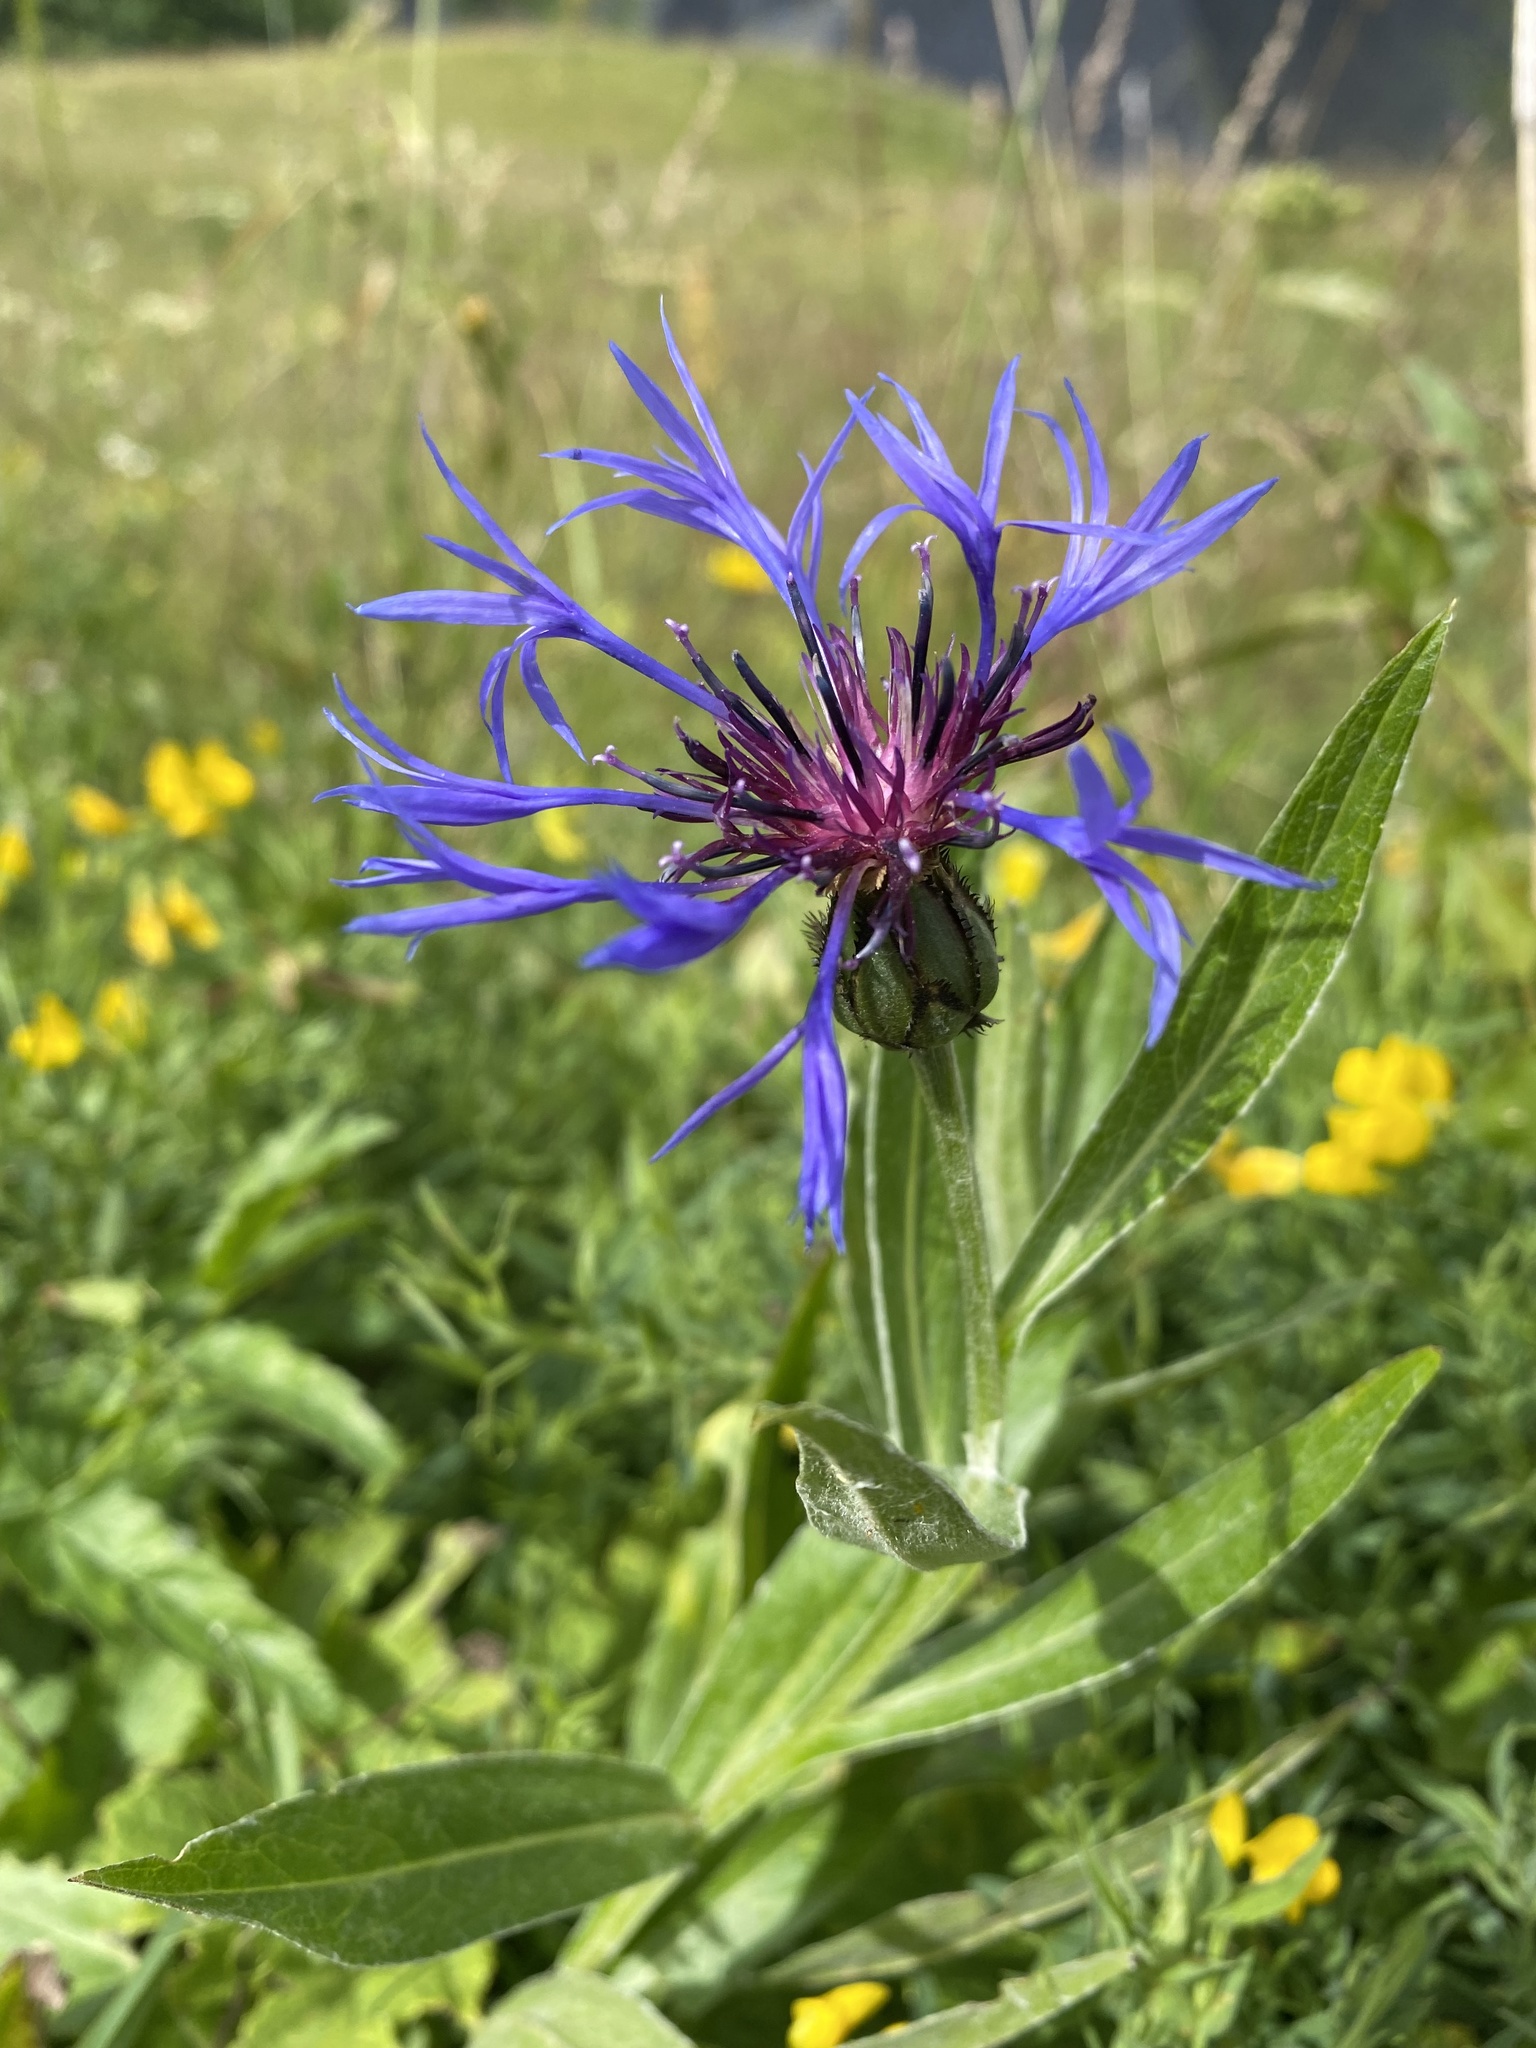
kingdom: Plantae
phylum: Tracheophyta
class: Magnoliopsida
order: Asterales
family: Asteraceae
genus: Centaurea
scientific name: Centaurea montana
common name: Perennial cornflower
